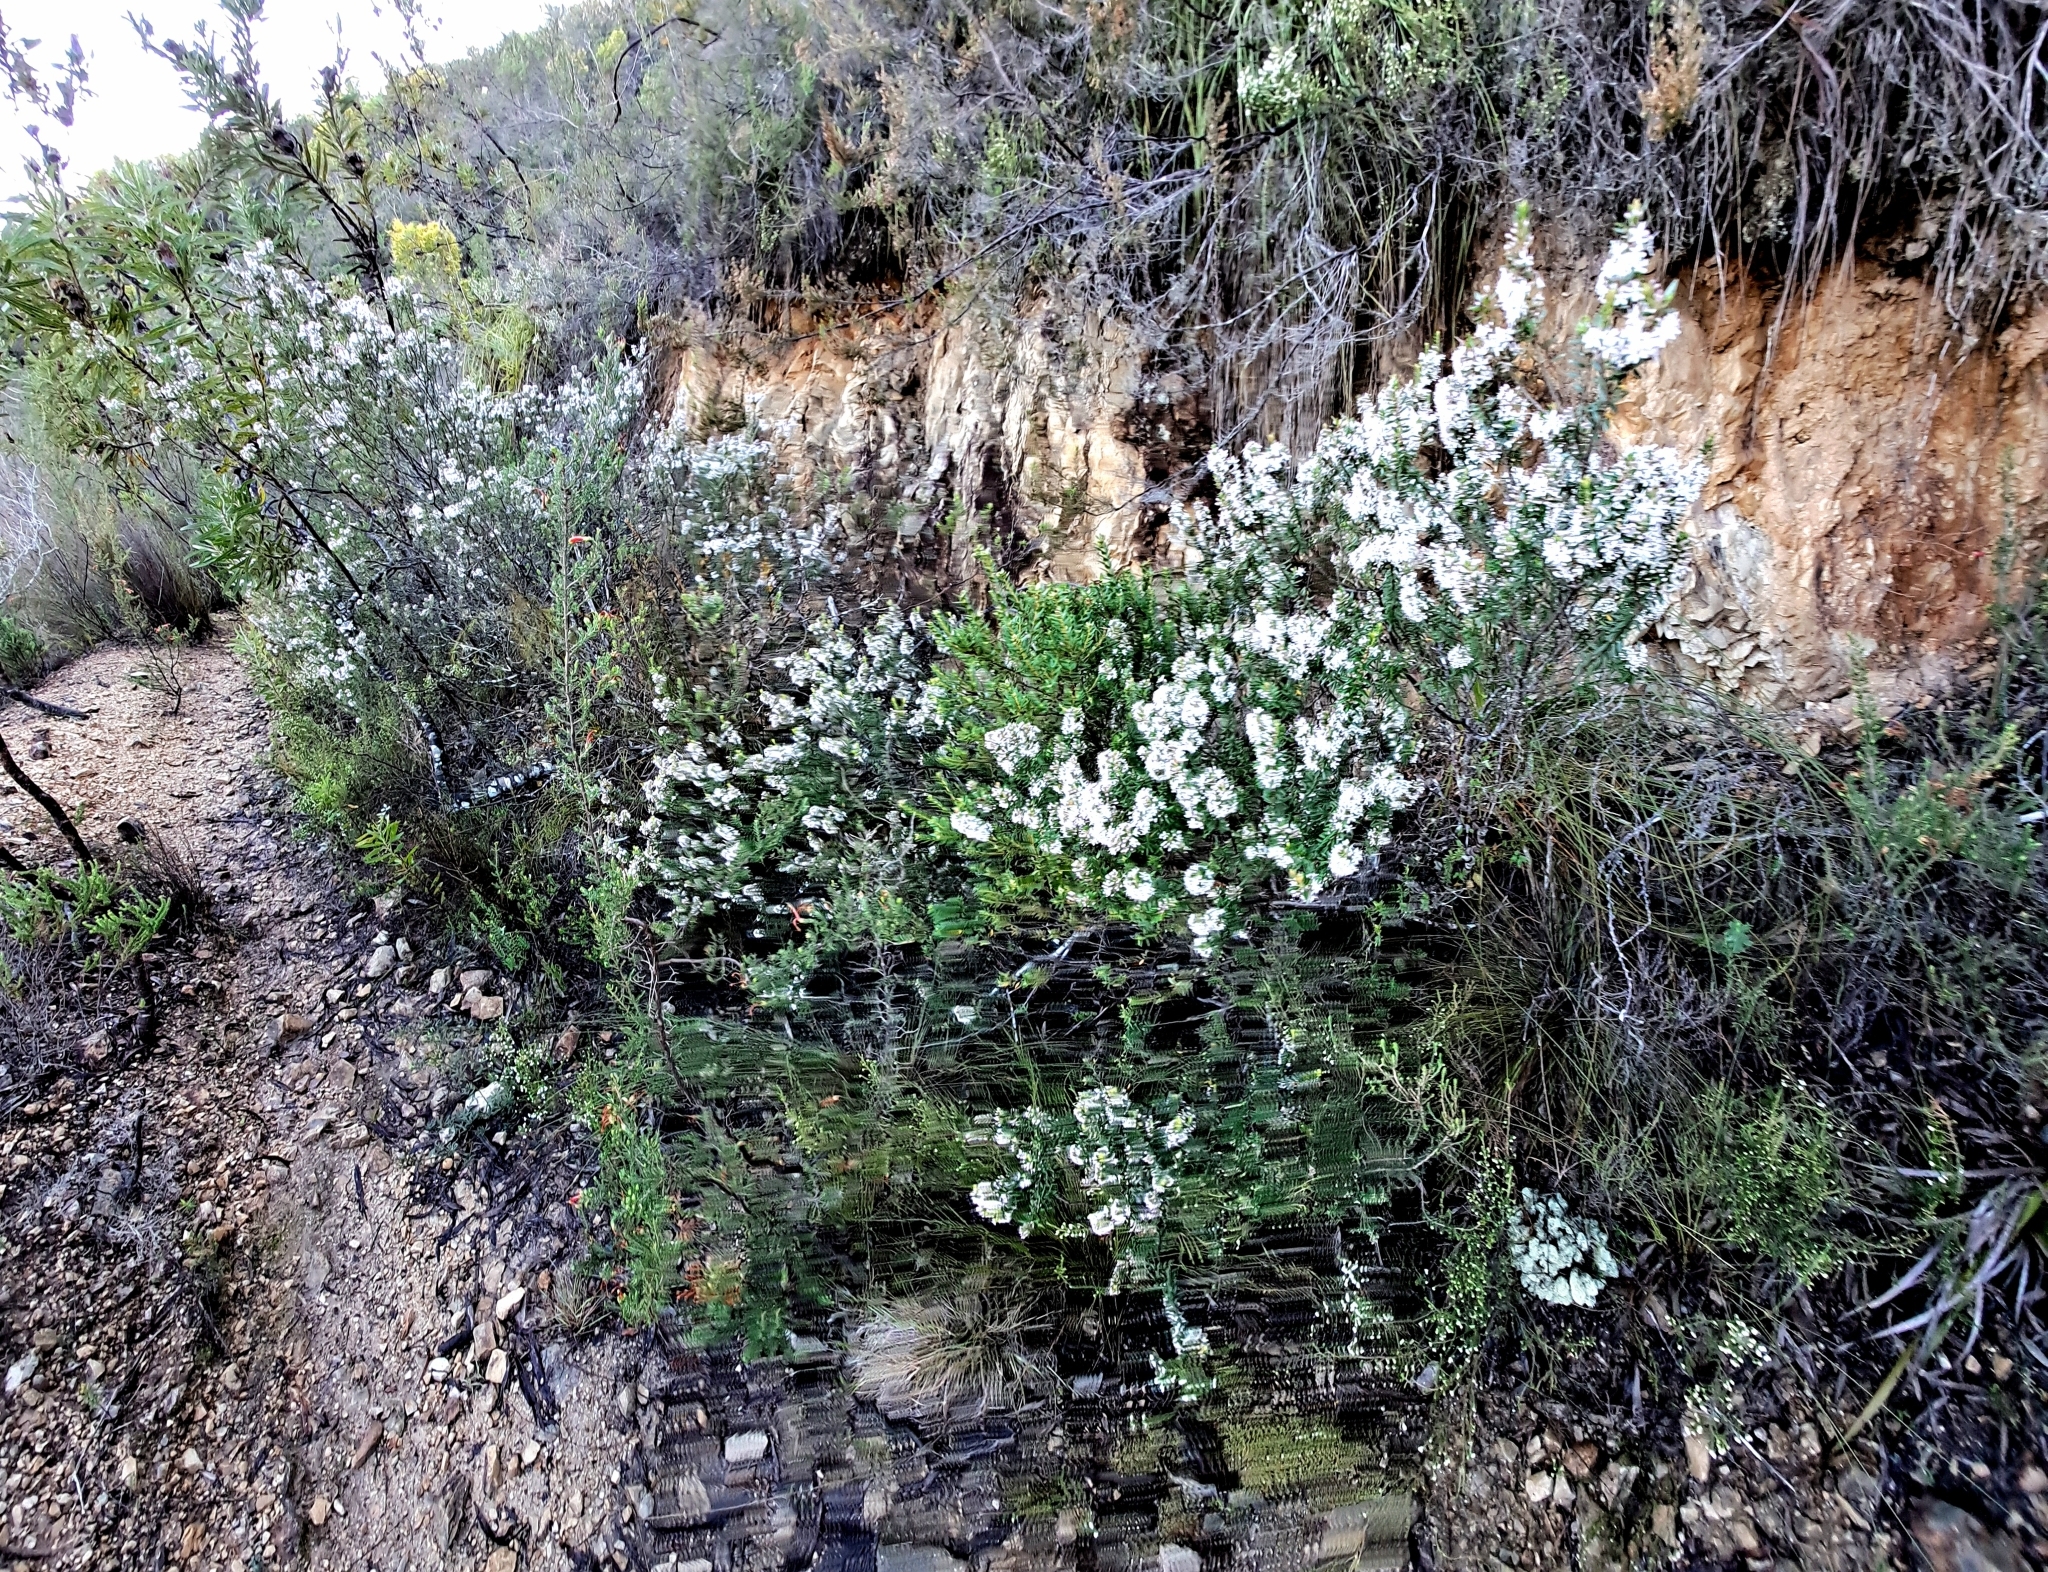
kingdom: Plantae
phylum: Tracheophyta
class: Magnoliopsida
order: Sapindales
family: Rutaceae
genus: Agathosma
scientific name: Agathosma ovata
